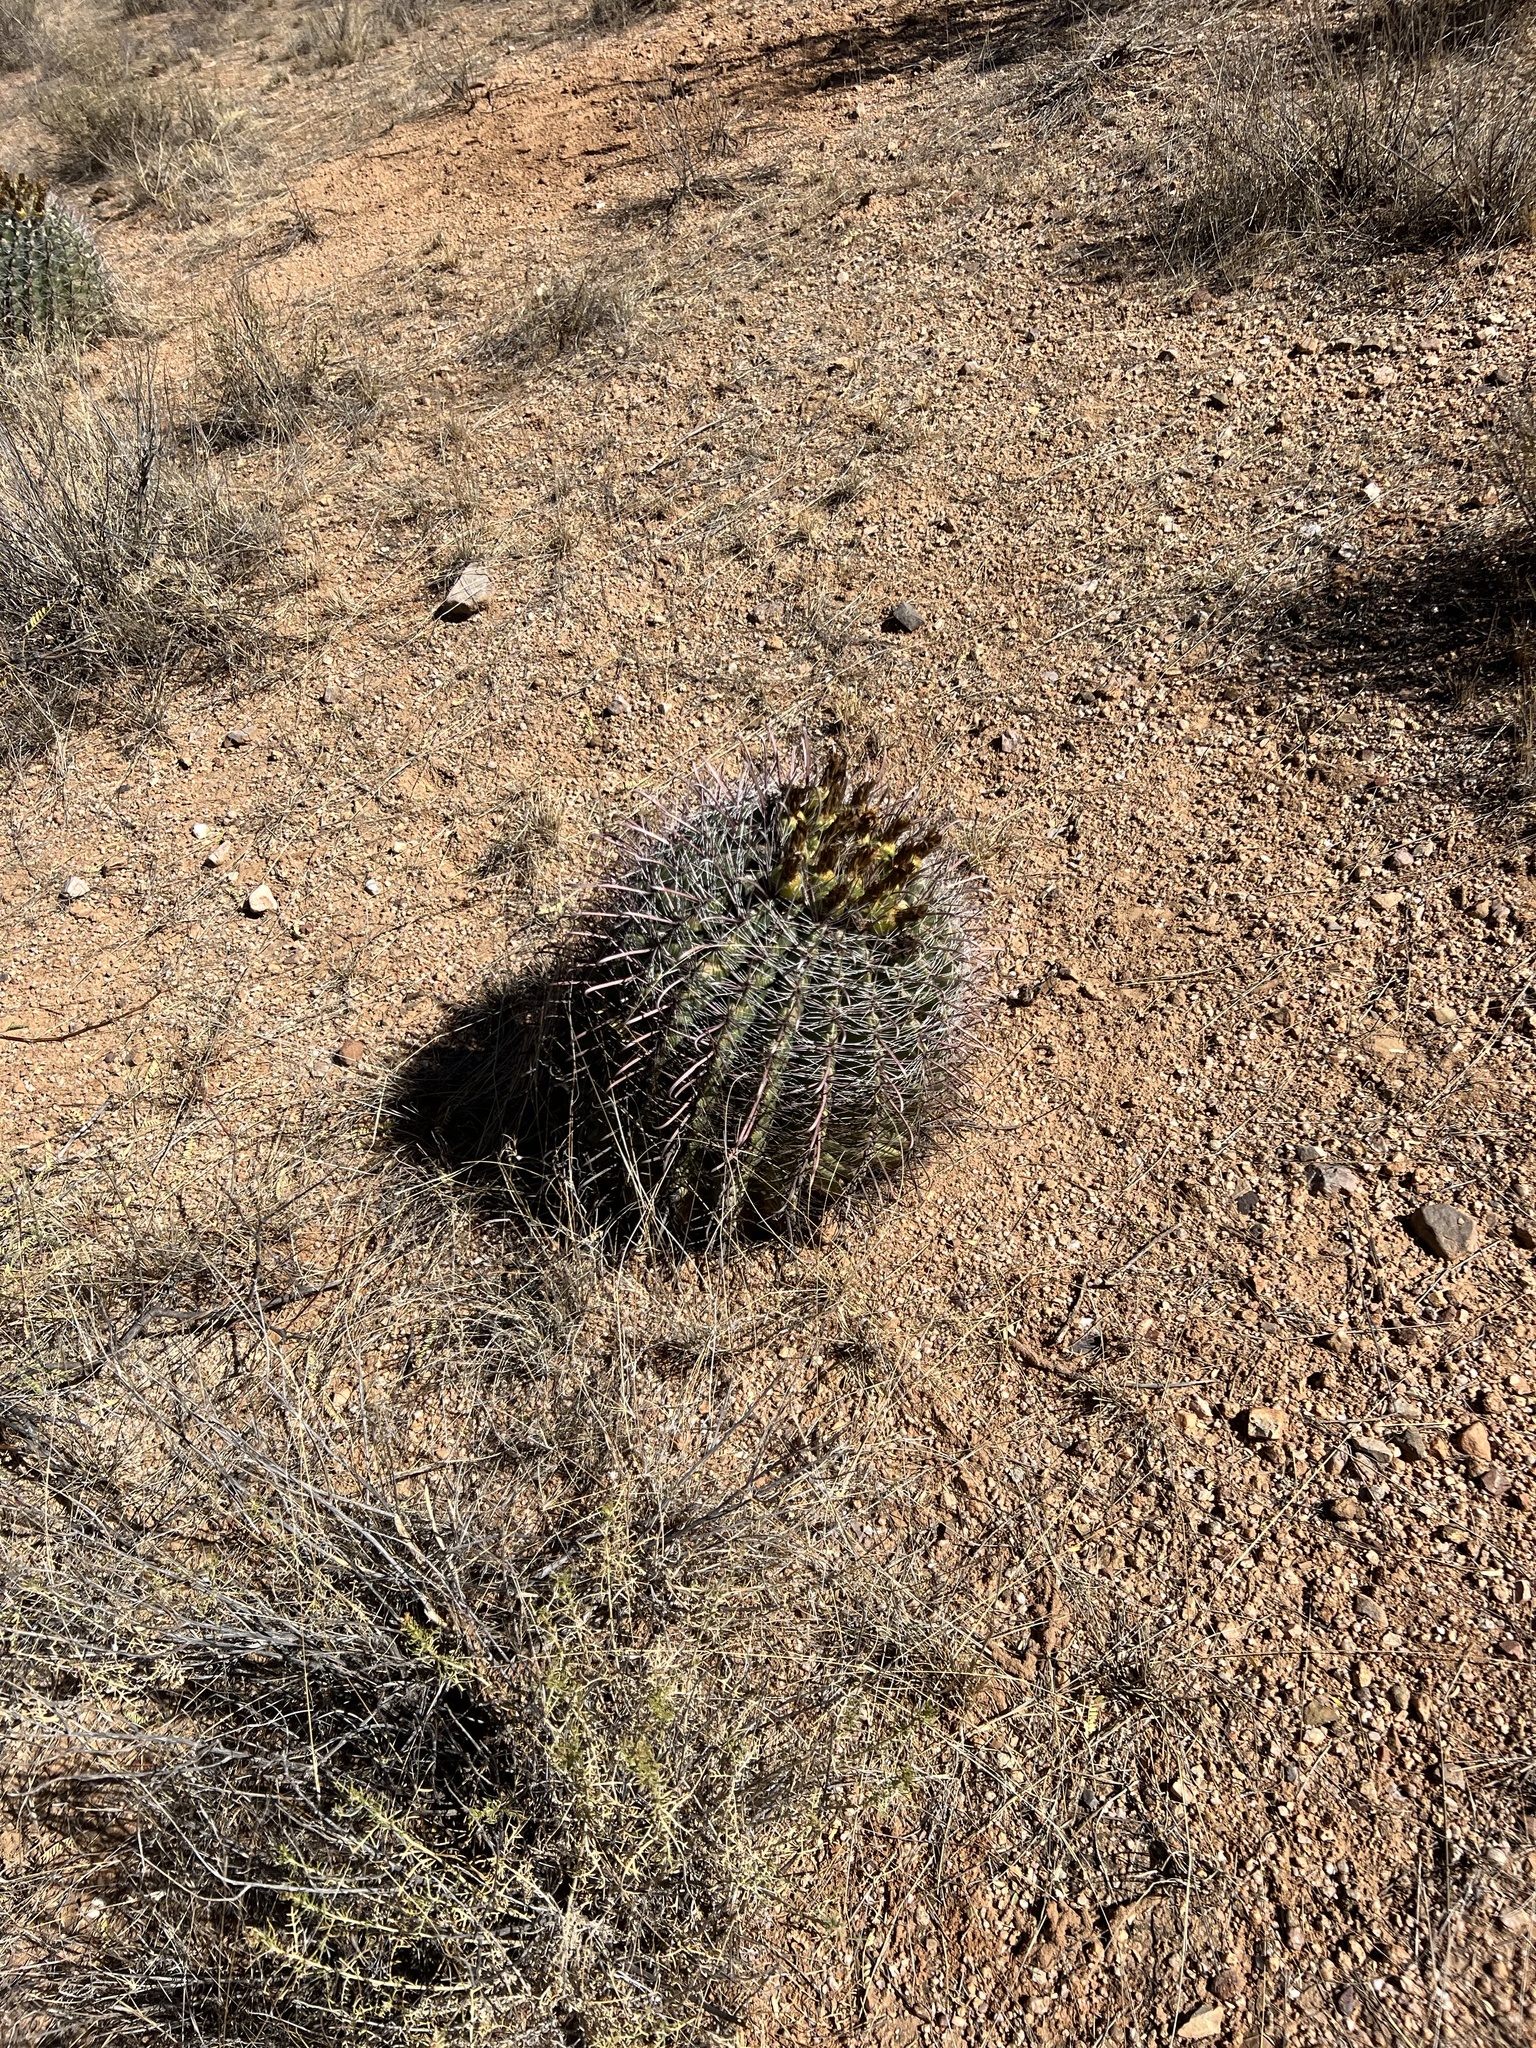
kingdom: Plantae
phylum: Tracheophyta
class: Magnoliopsida
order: Caryophyllales
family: Cactaceae
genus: Ferocactus
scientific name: Ferocactus wislizeni
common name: Candy barrel cactus
